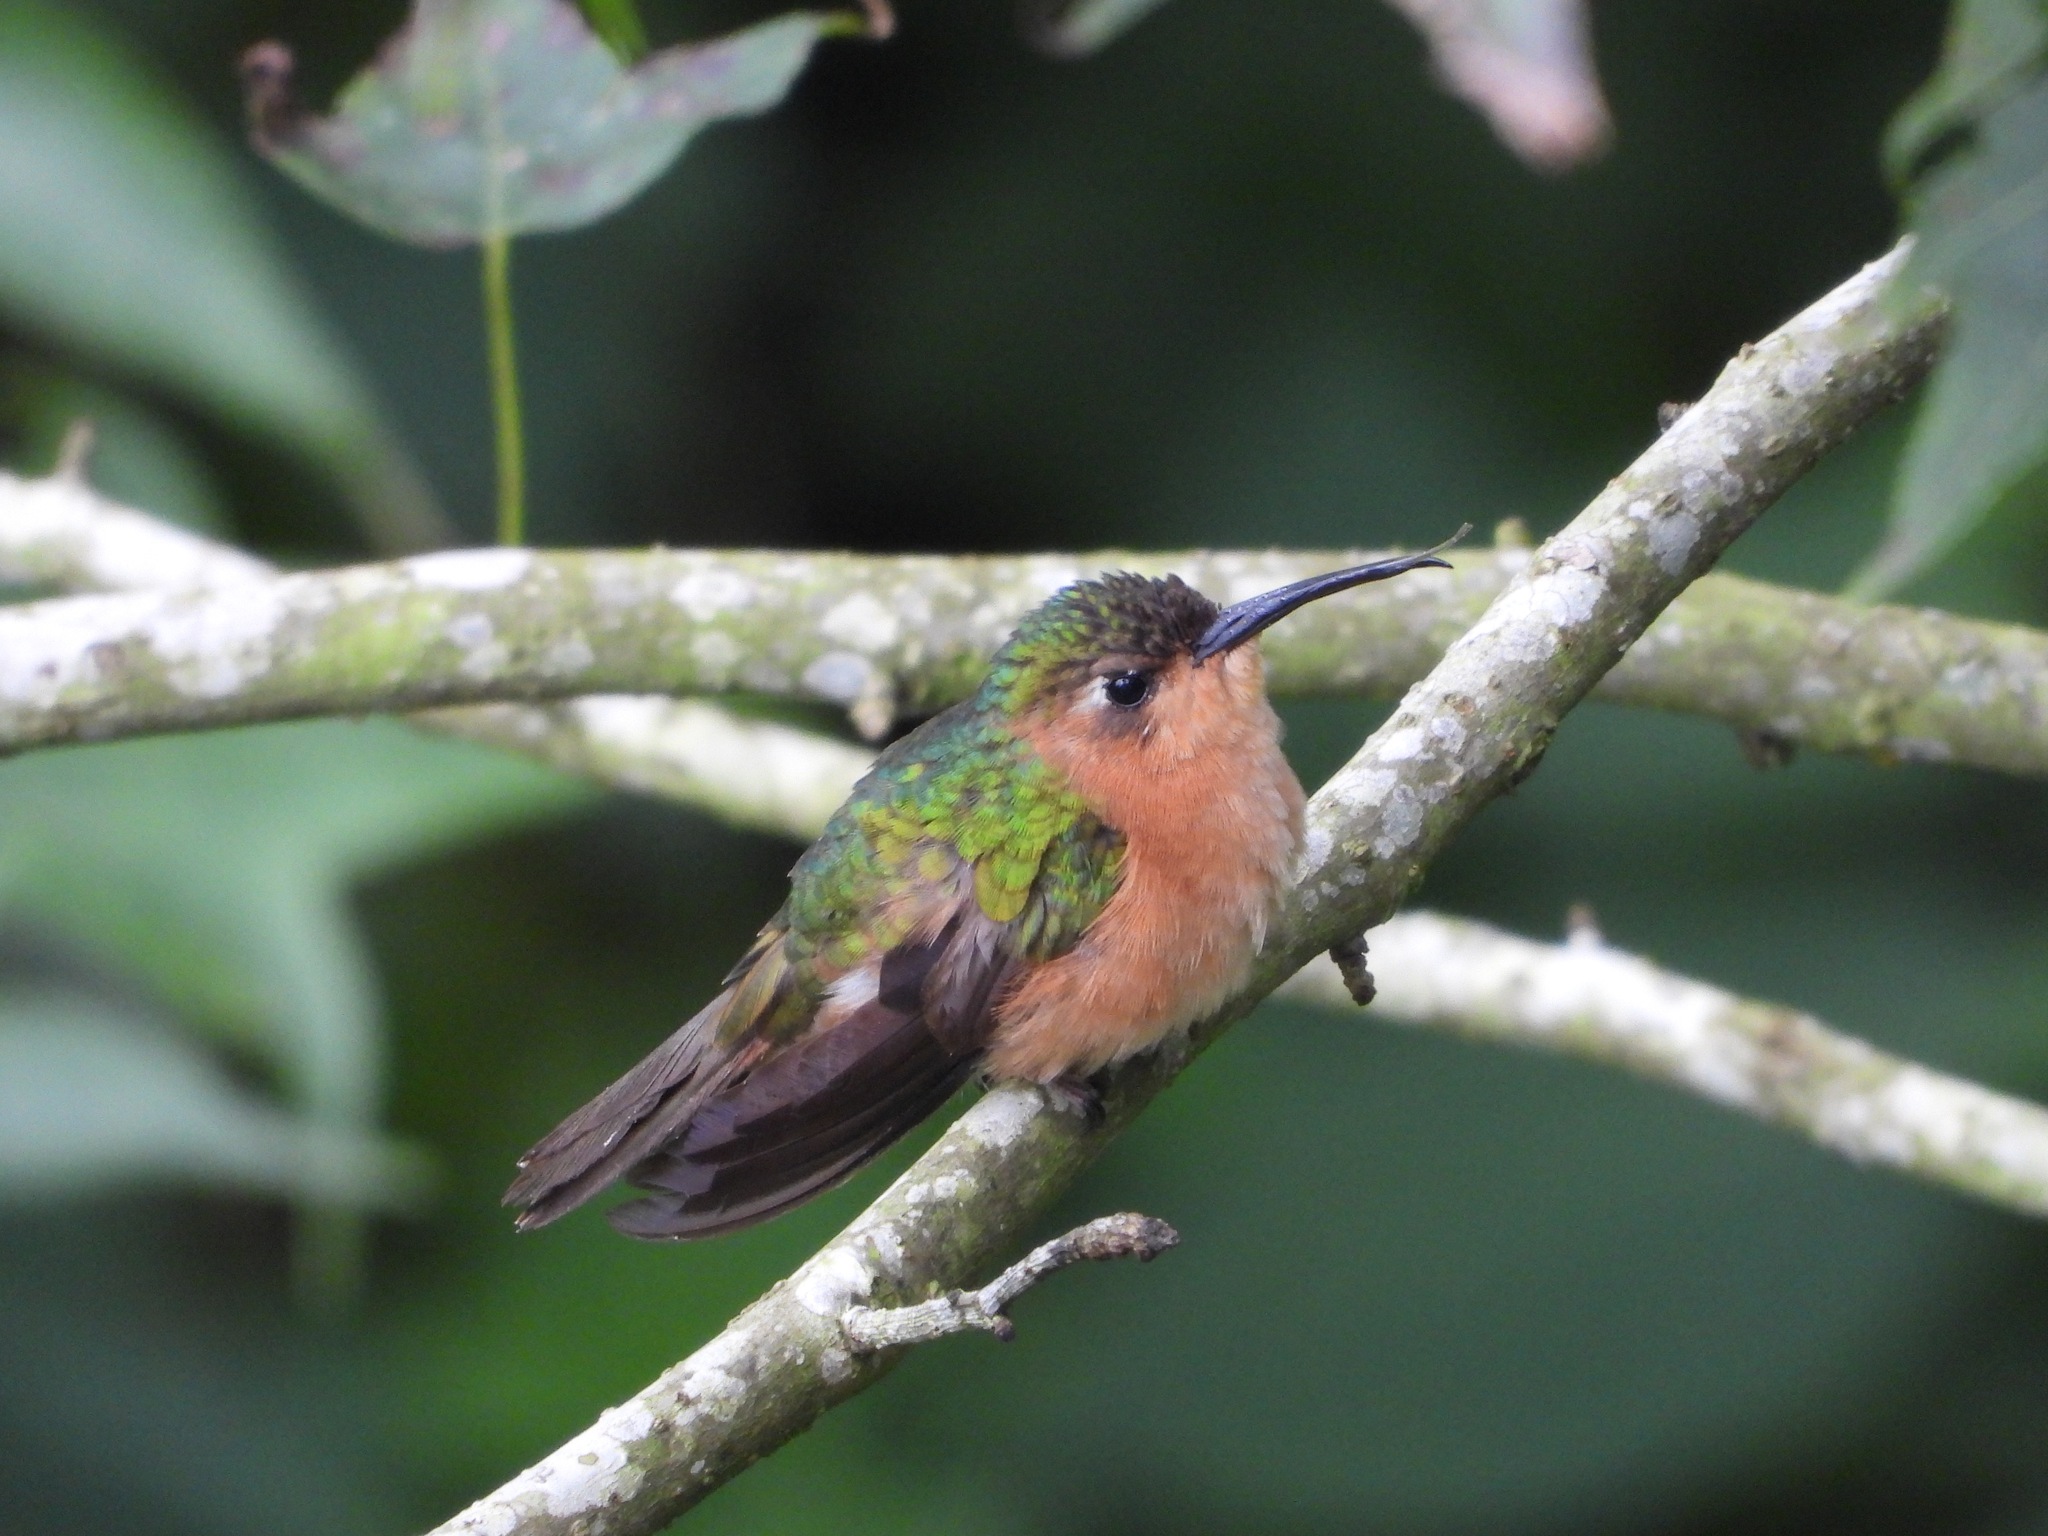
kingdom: Animalia
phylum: Chordata
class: Aves
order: Apodiformes
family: Trochilidae
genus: Pampa
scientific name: Pampa rufa
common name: Rufous sabrewing
